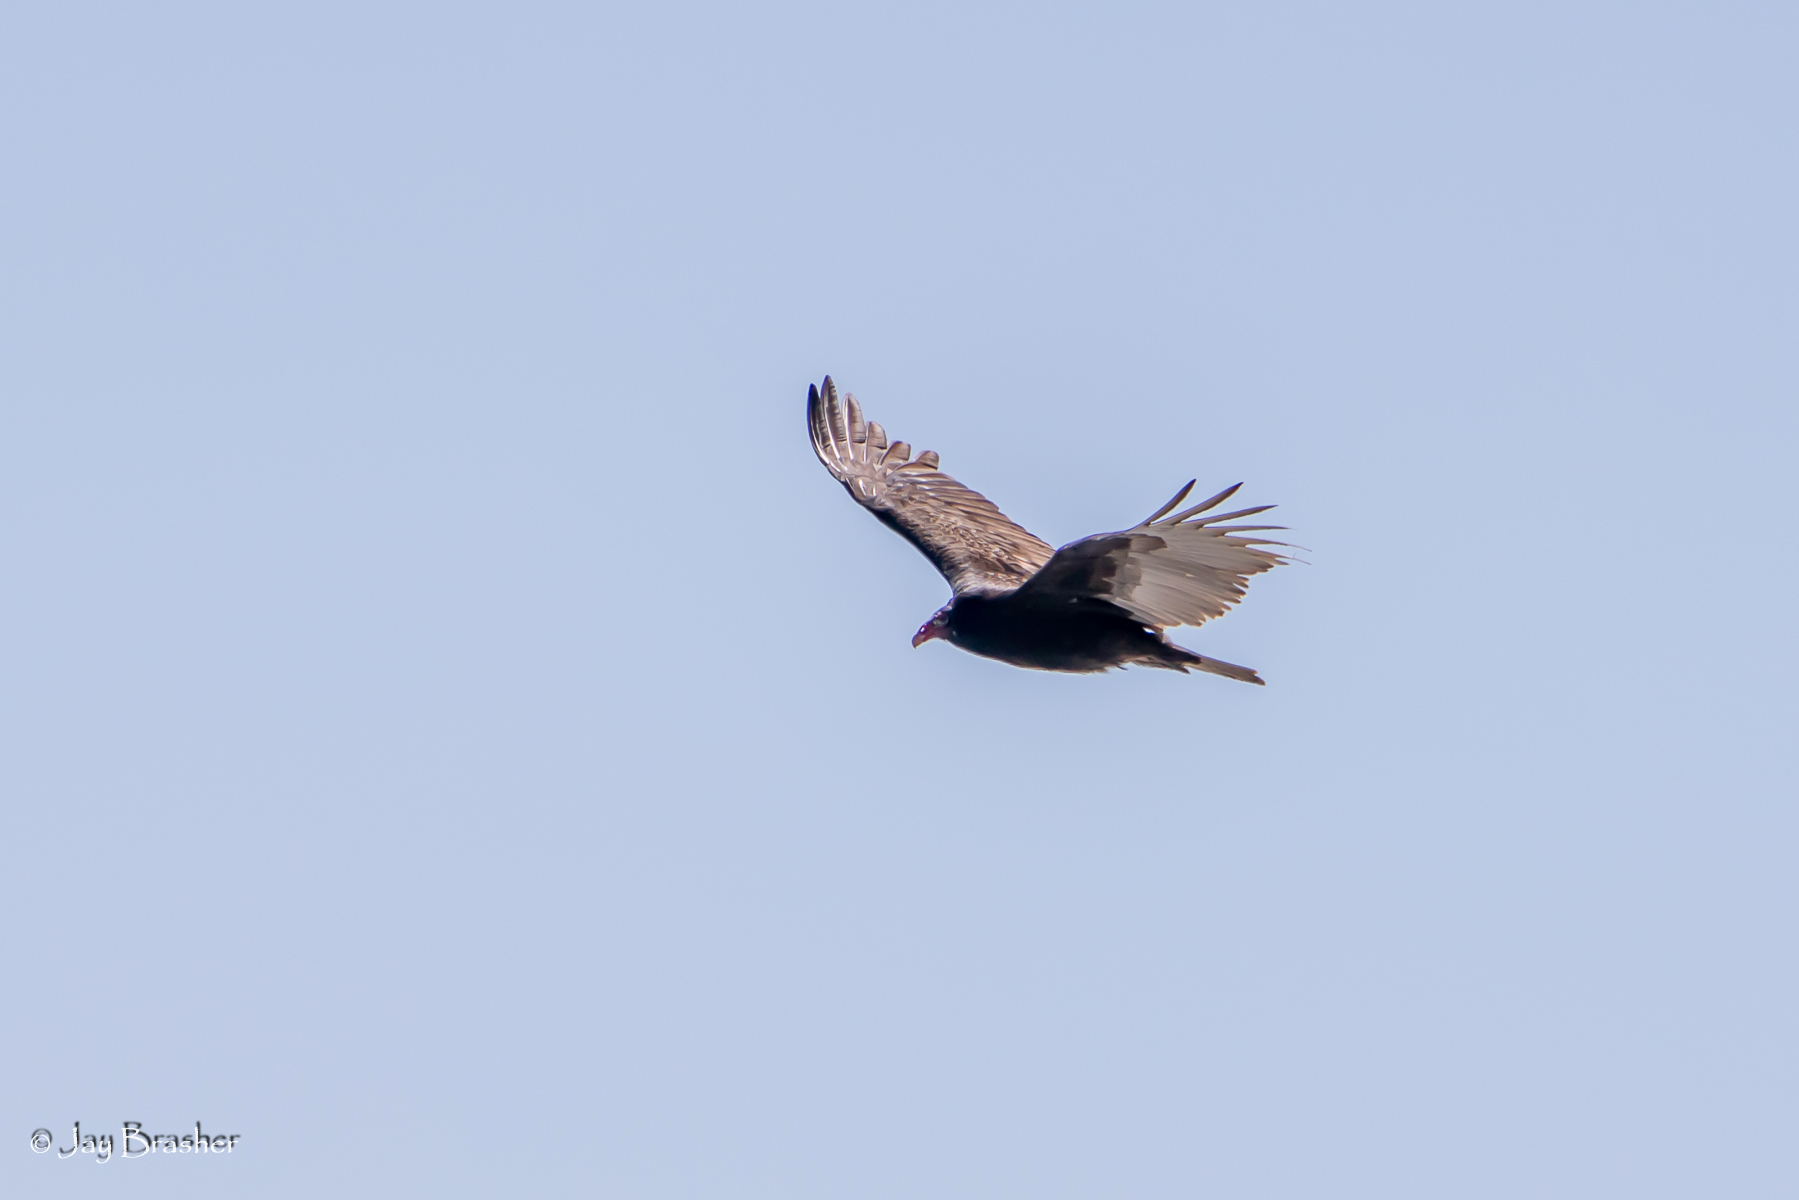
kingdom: Animalia
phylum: Chordata
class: Aves
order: Accipitriformes
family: Cathartidae
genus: Cathartes
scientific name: Cathartes aura
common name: Turkey vulture
